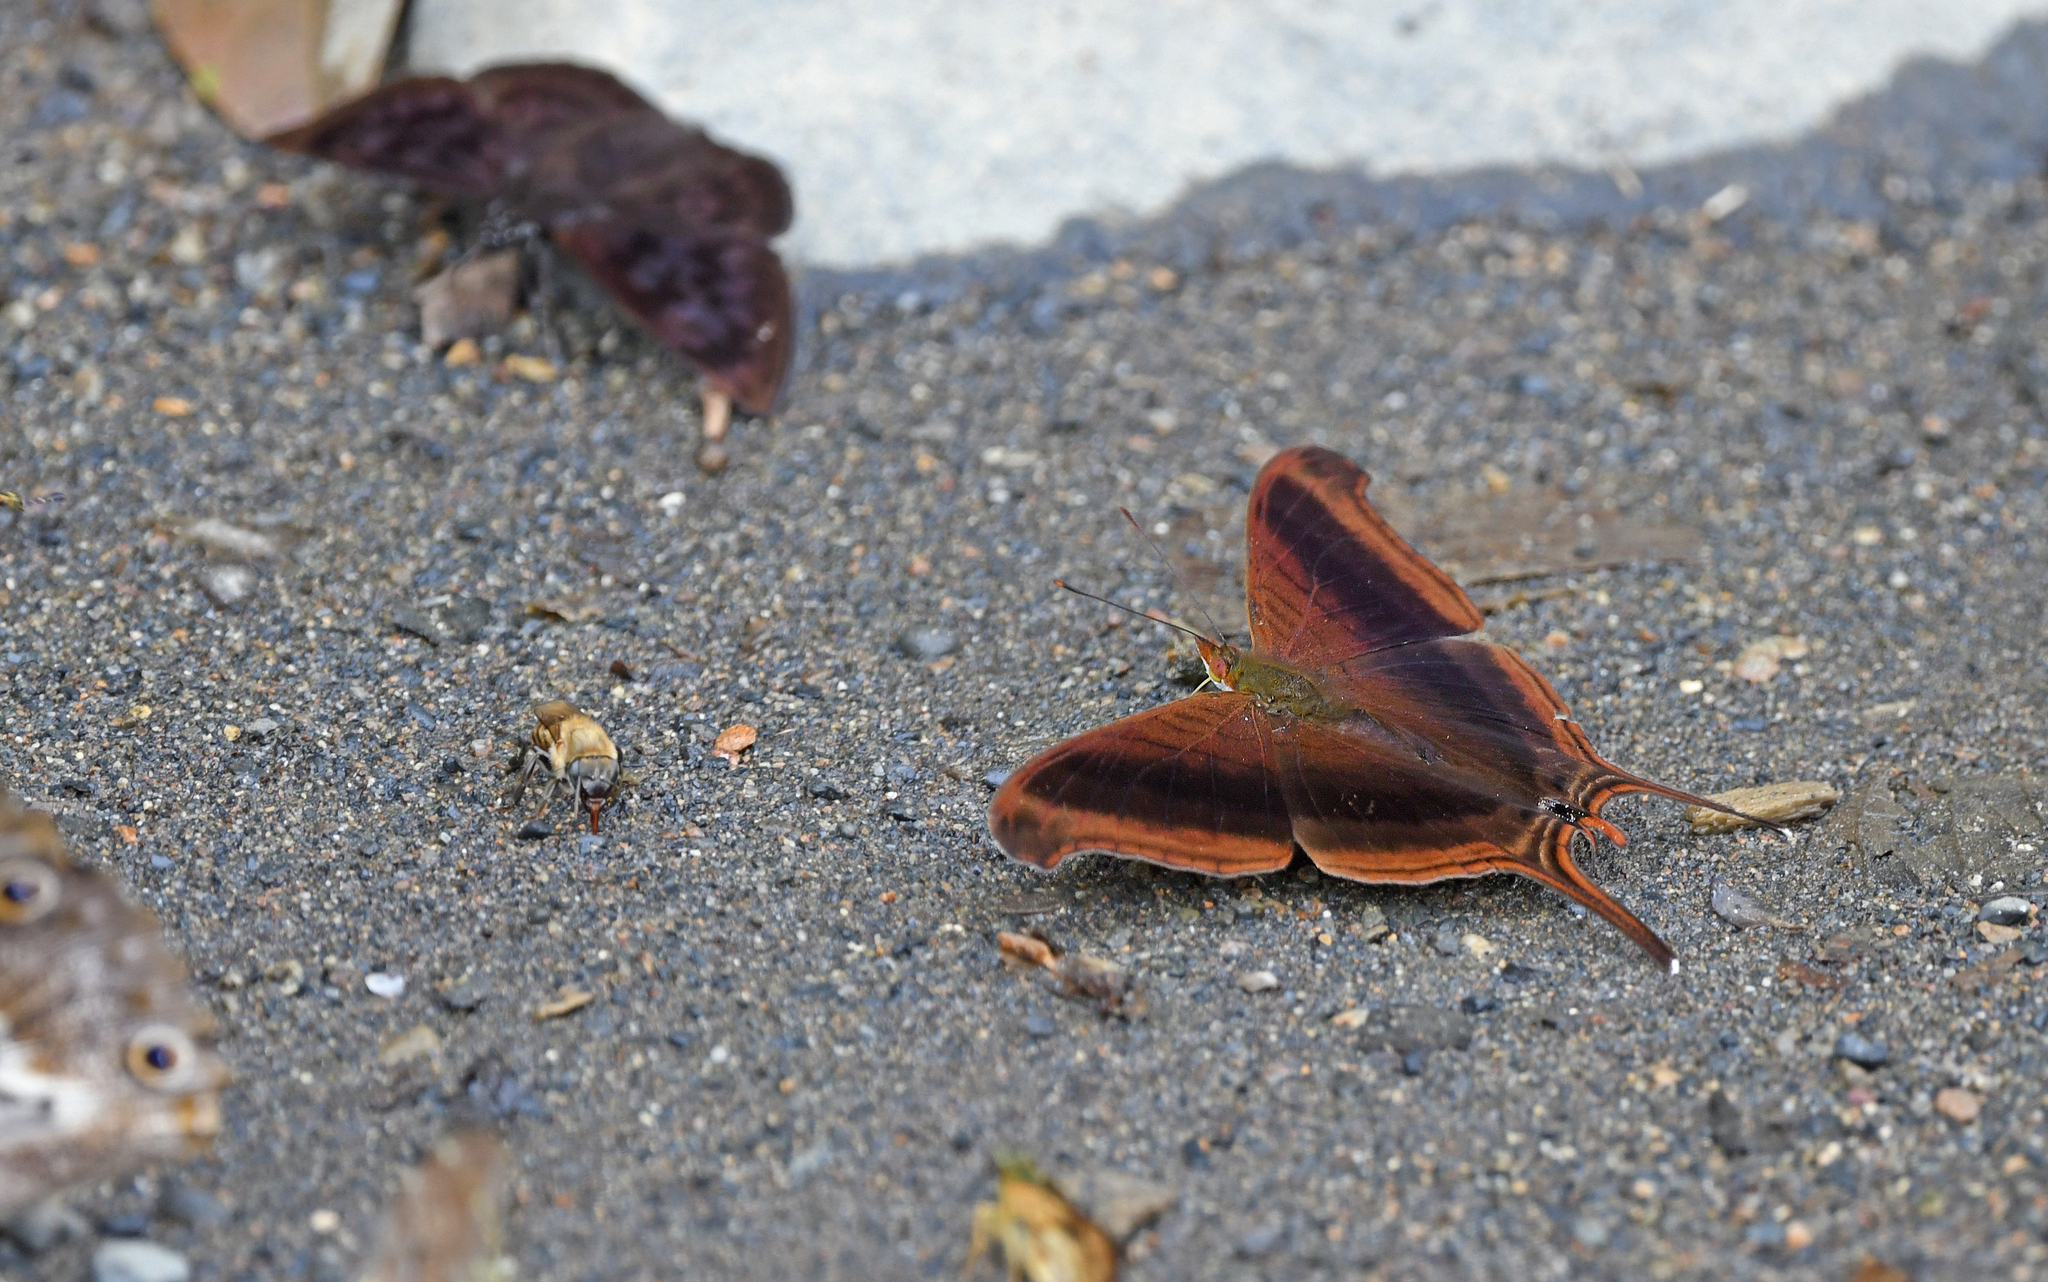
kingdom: Animalia
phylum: Arthropoda
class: Insecta
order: Lepidoptera
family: Nymphalidae
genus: Marpesia
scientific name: Marpesia zerynthia
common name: Waiter daggerwing
